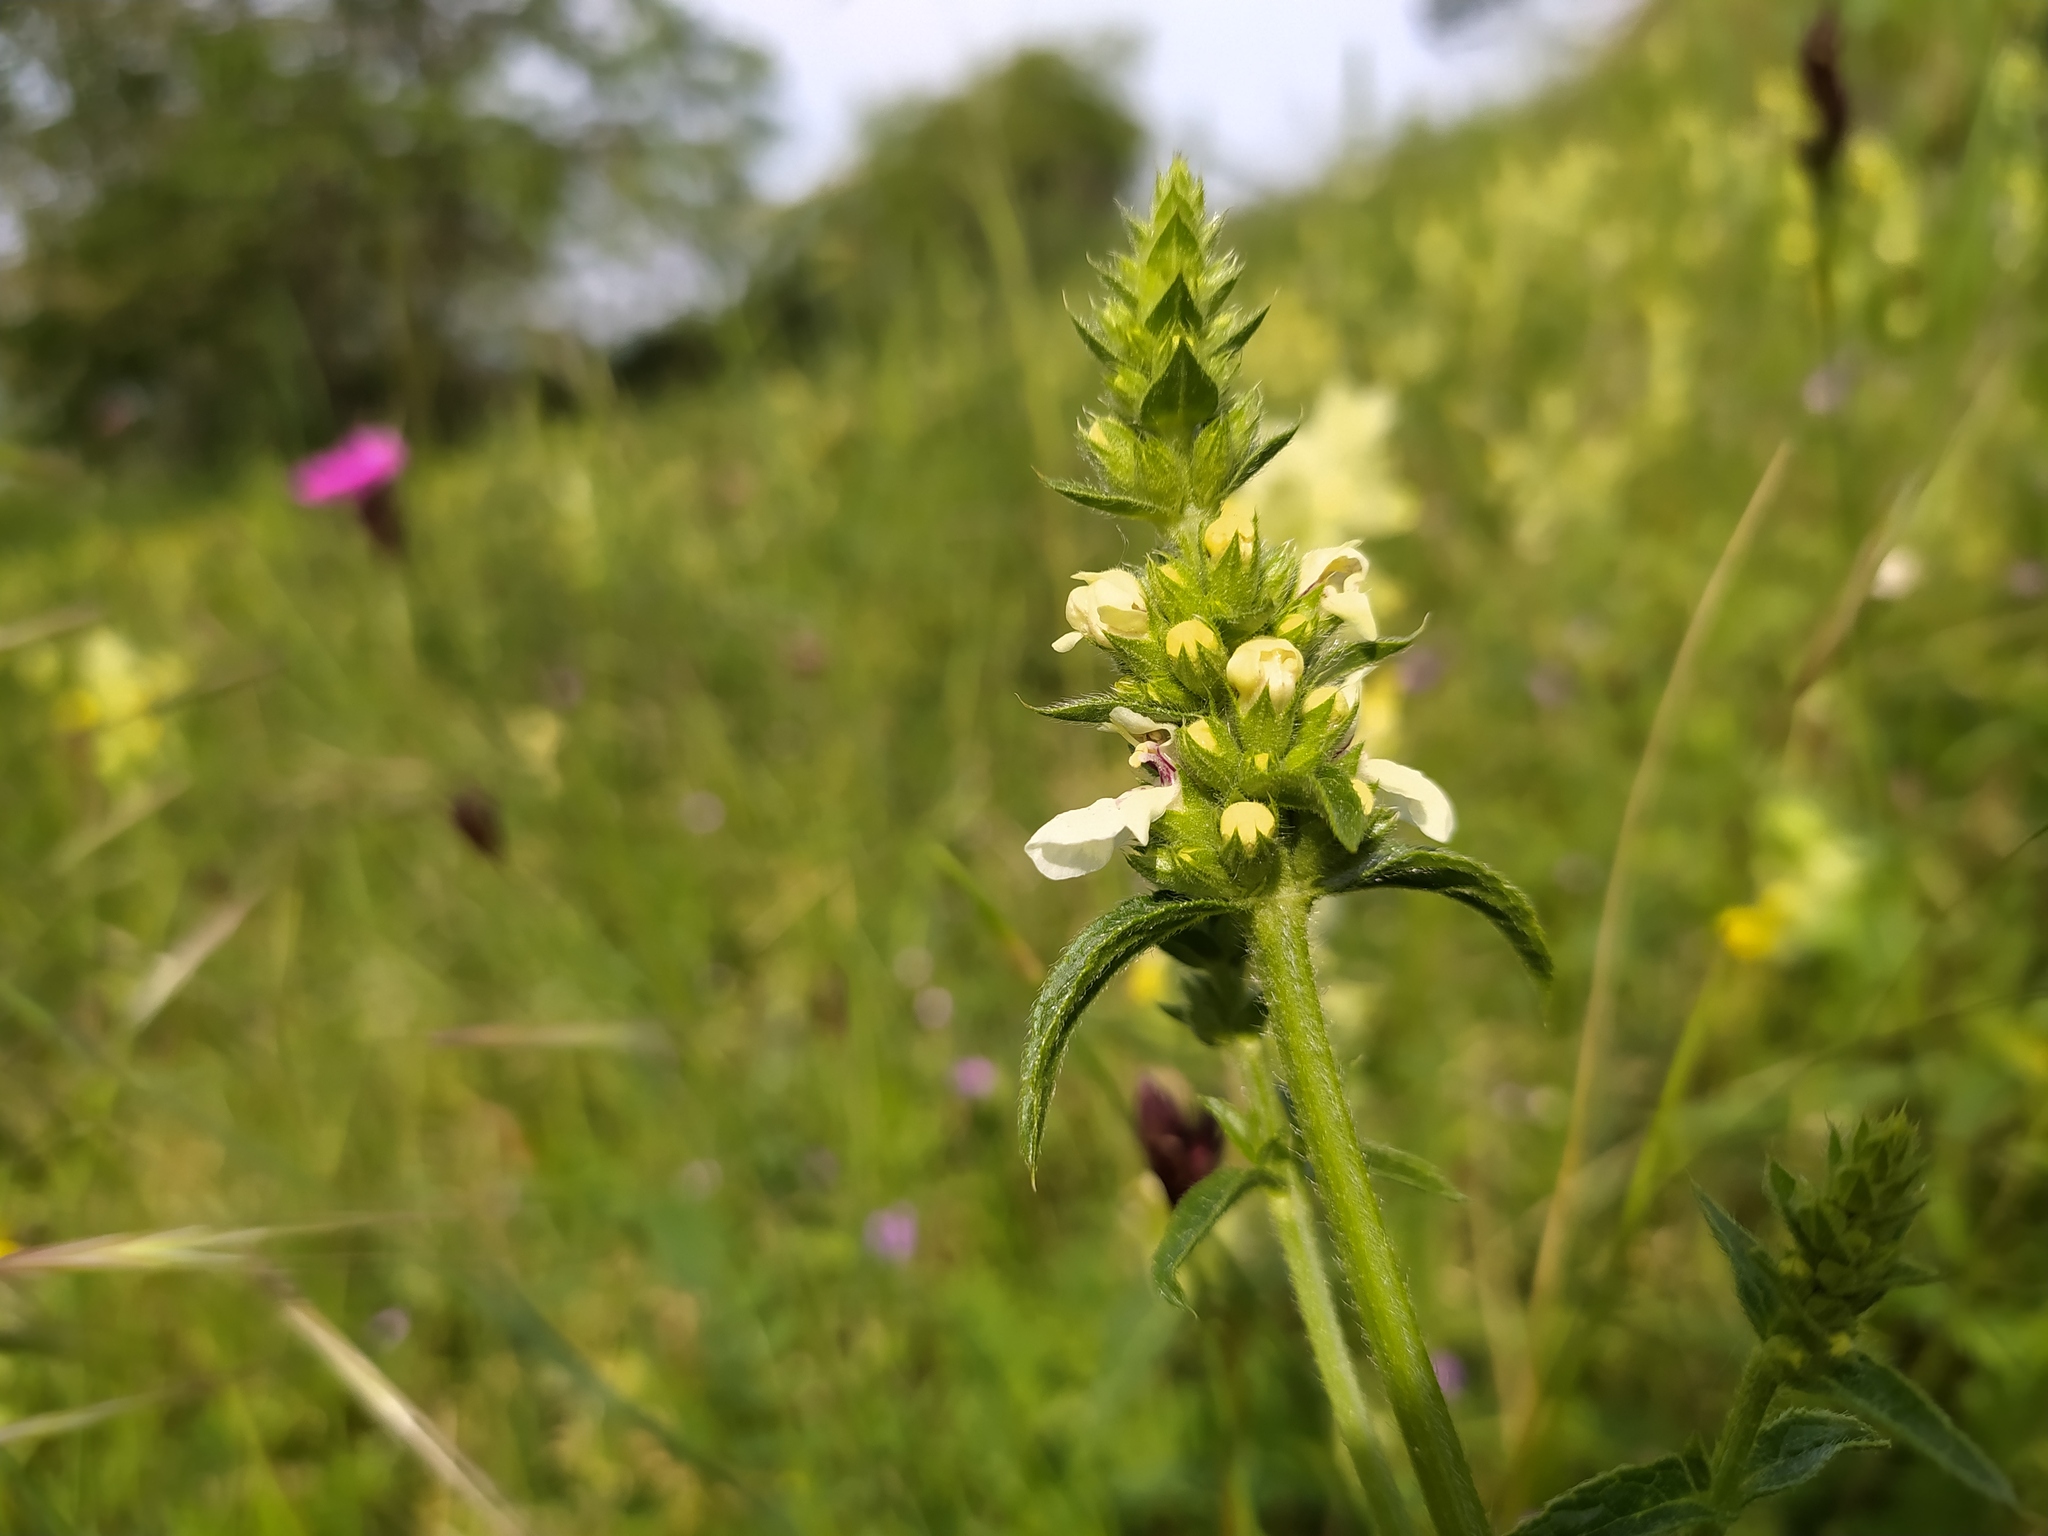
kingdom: Plantae
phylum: Tracheophyta
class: Magnoliopsida
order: Lamiales
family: Lamiaceae
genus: Stachys
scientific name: Stachys recta
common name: Perennial yellow-woundwort
